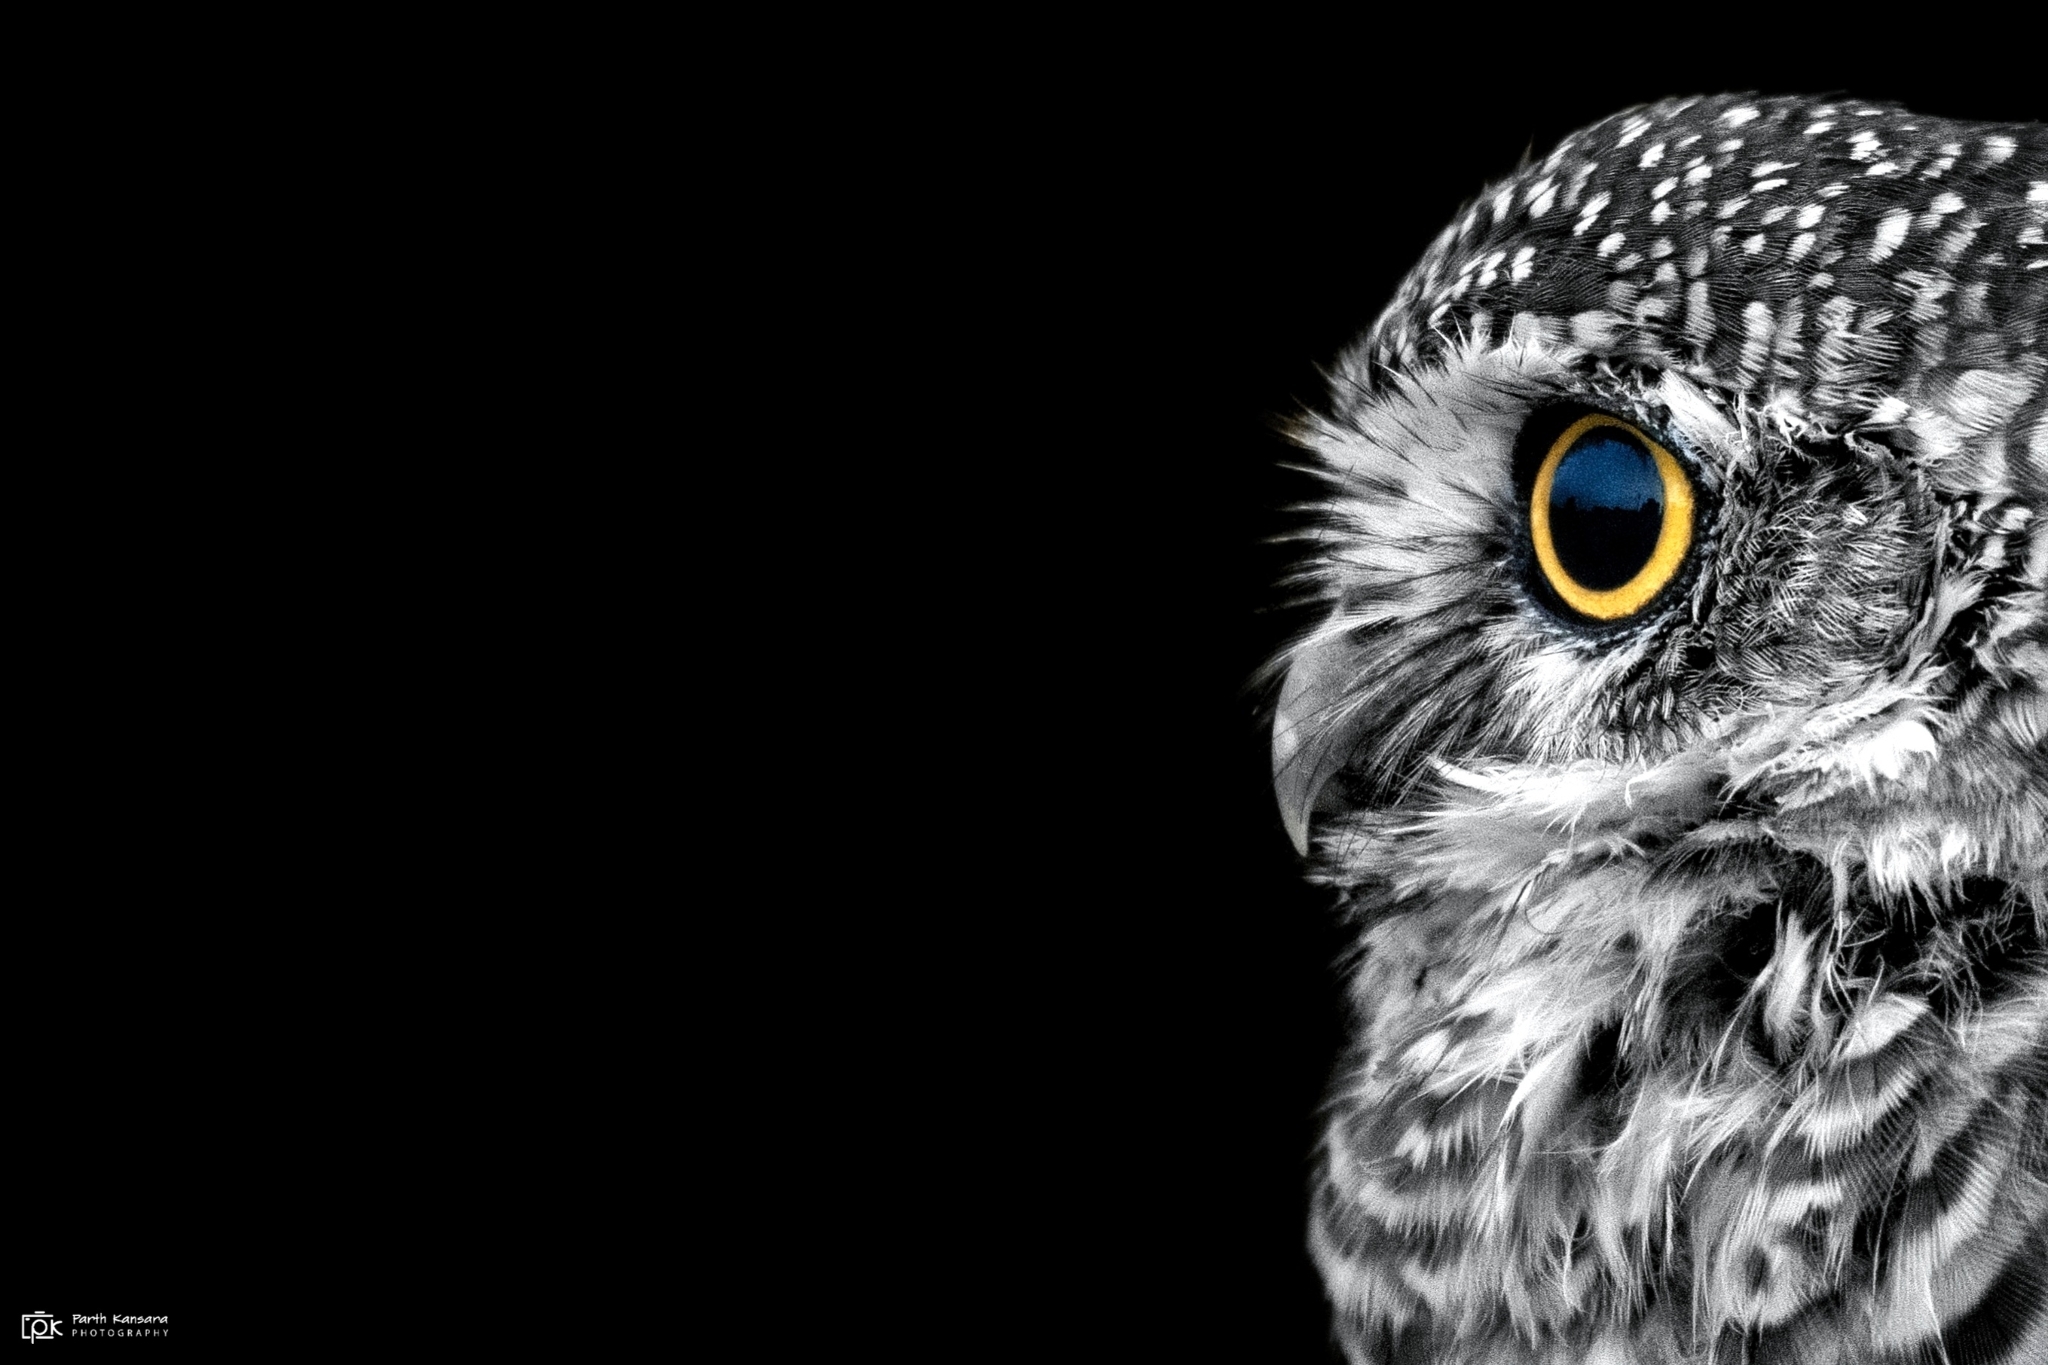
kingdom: Animalia
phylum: Chordata
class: Aves
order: Strigiformes
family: Strigidae
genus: Athene
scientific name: Athene brama
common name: Spotted owlet
